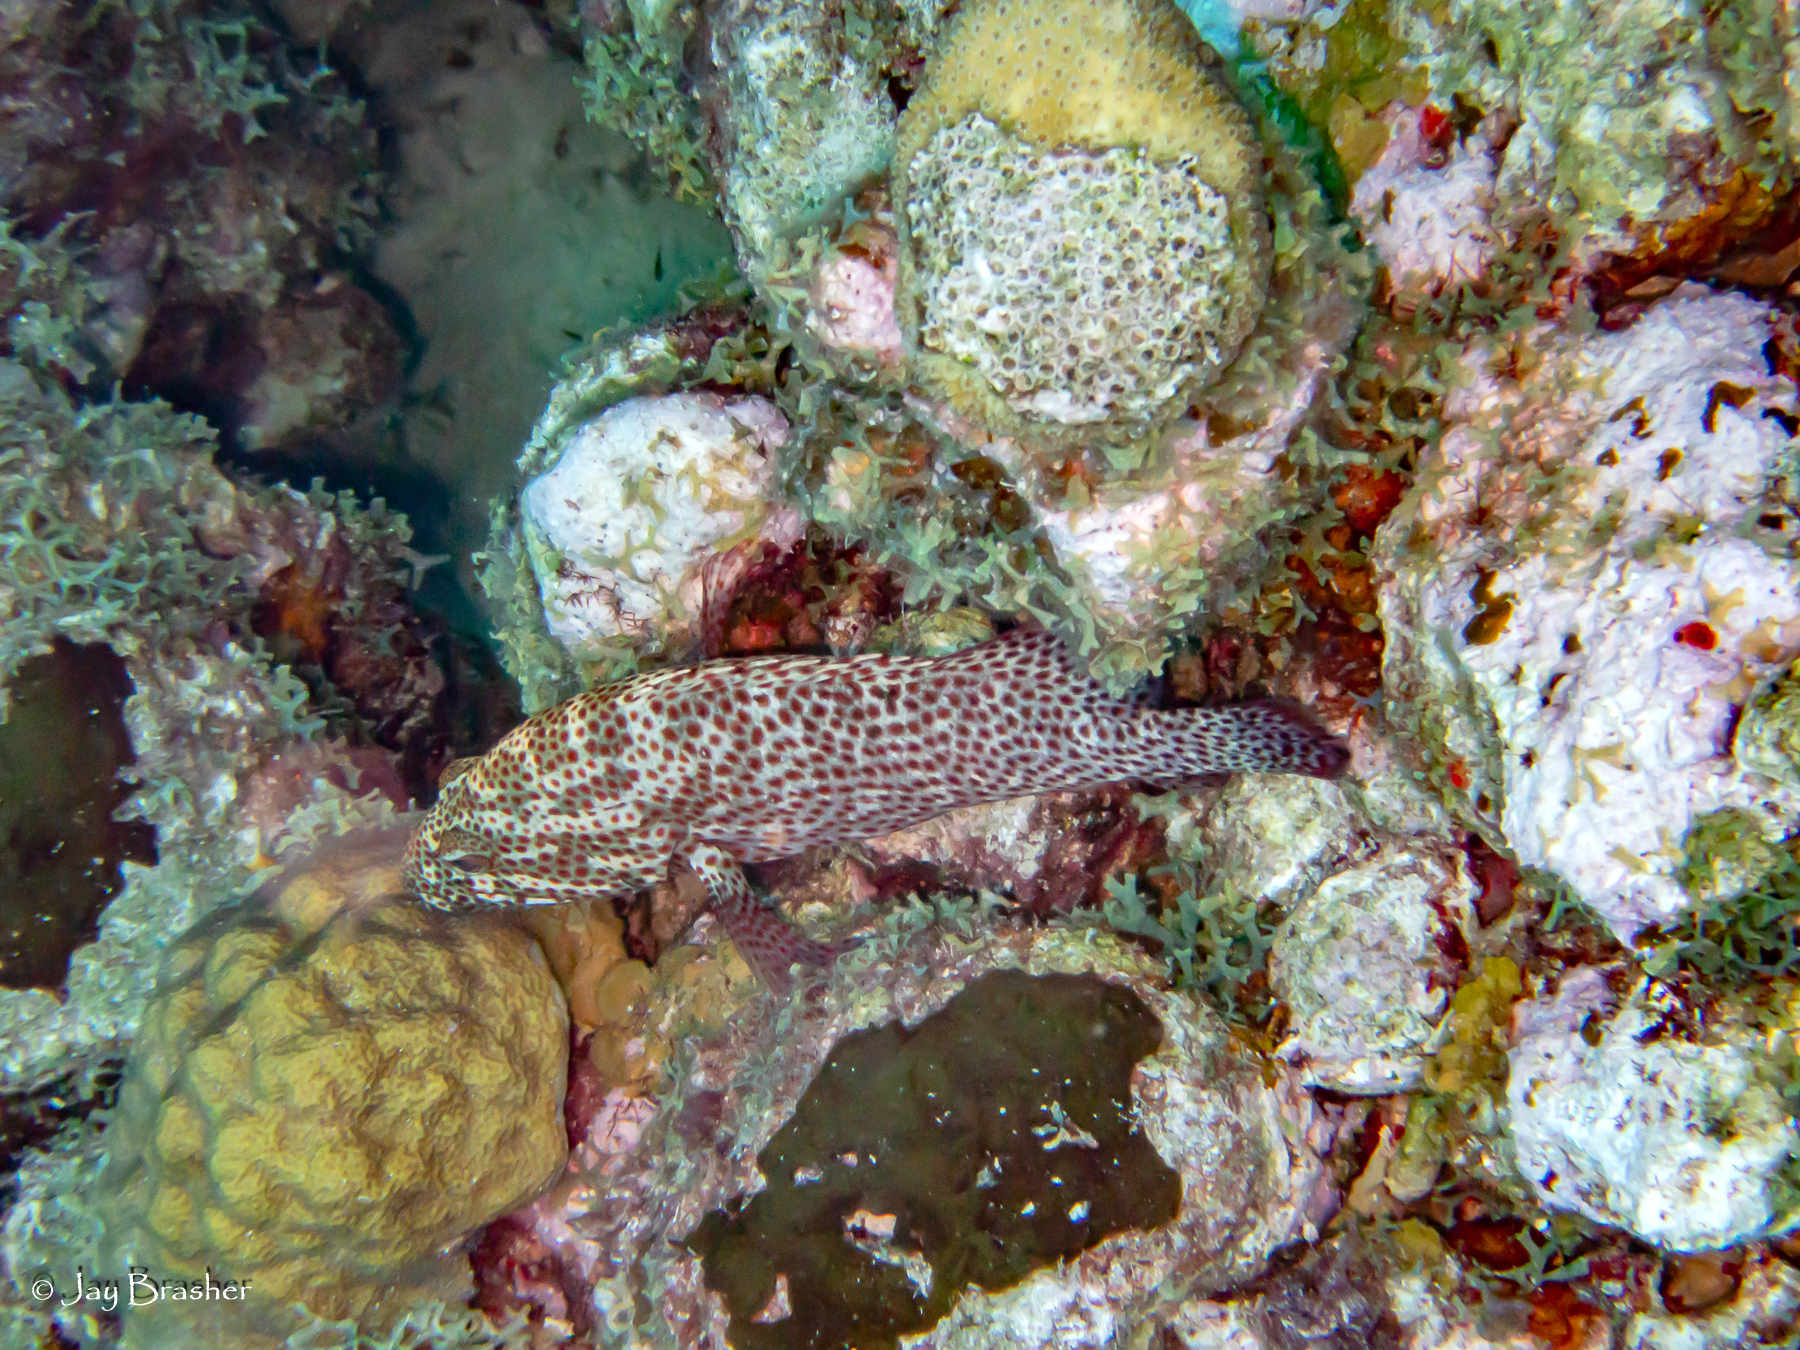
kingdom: Animalia
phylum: Cnidaria
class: Anthozoa
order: Scleractinia
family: Poritidae
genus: Porites
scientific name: Porites astreoides
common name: Mustard hill coral
